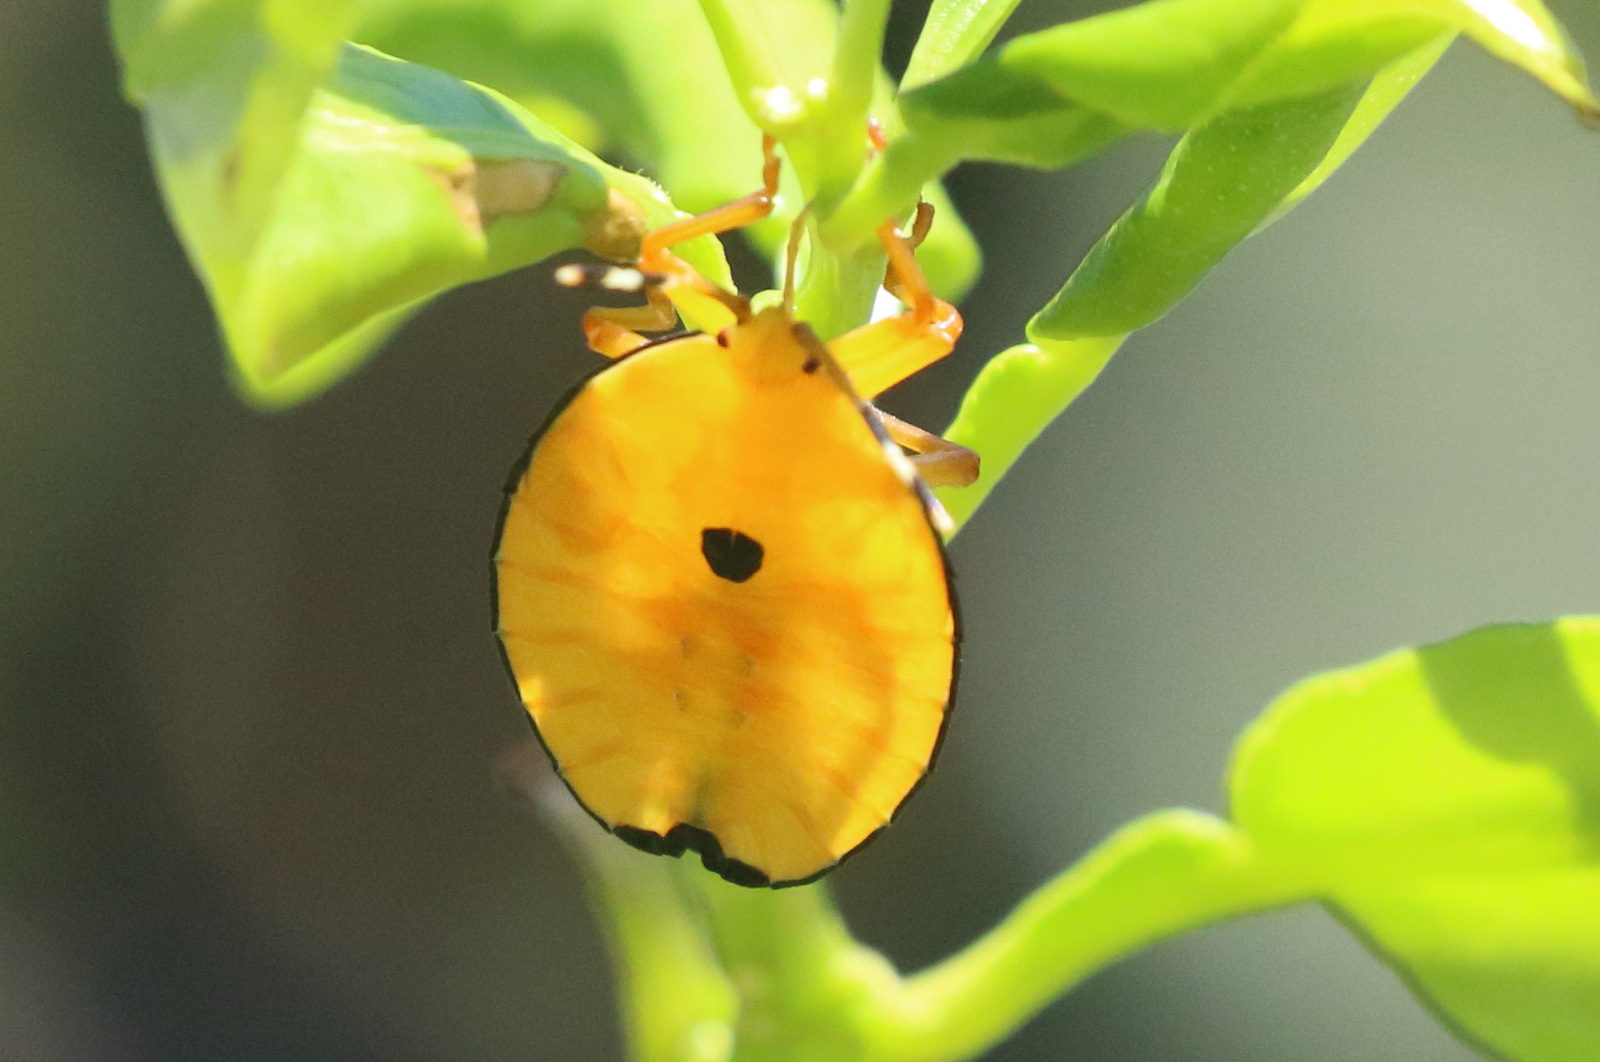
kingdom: Animalia
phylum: Arthropoda
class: Insecta
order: Hemiptera
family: Tessaratomidae
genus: Musgraveia
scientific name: Musgraveia sulciventris
